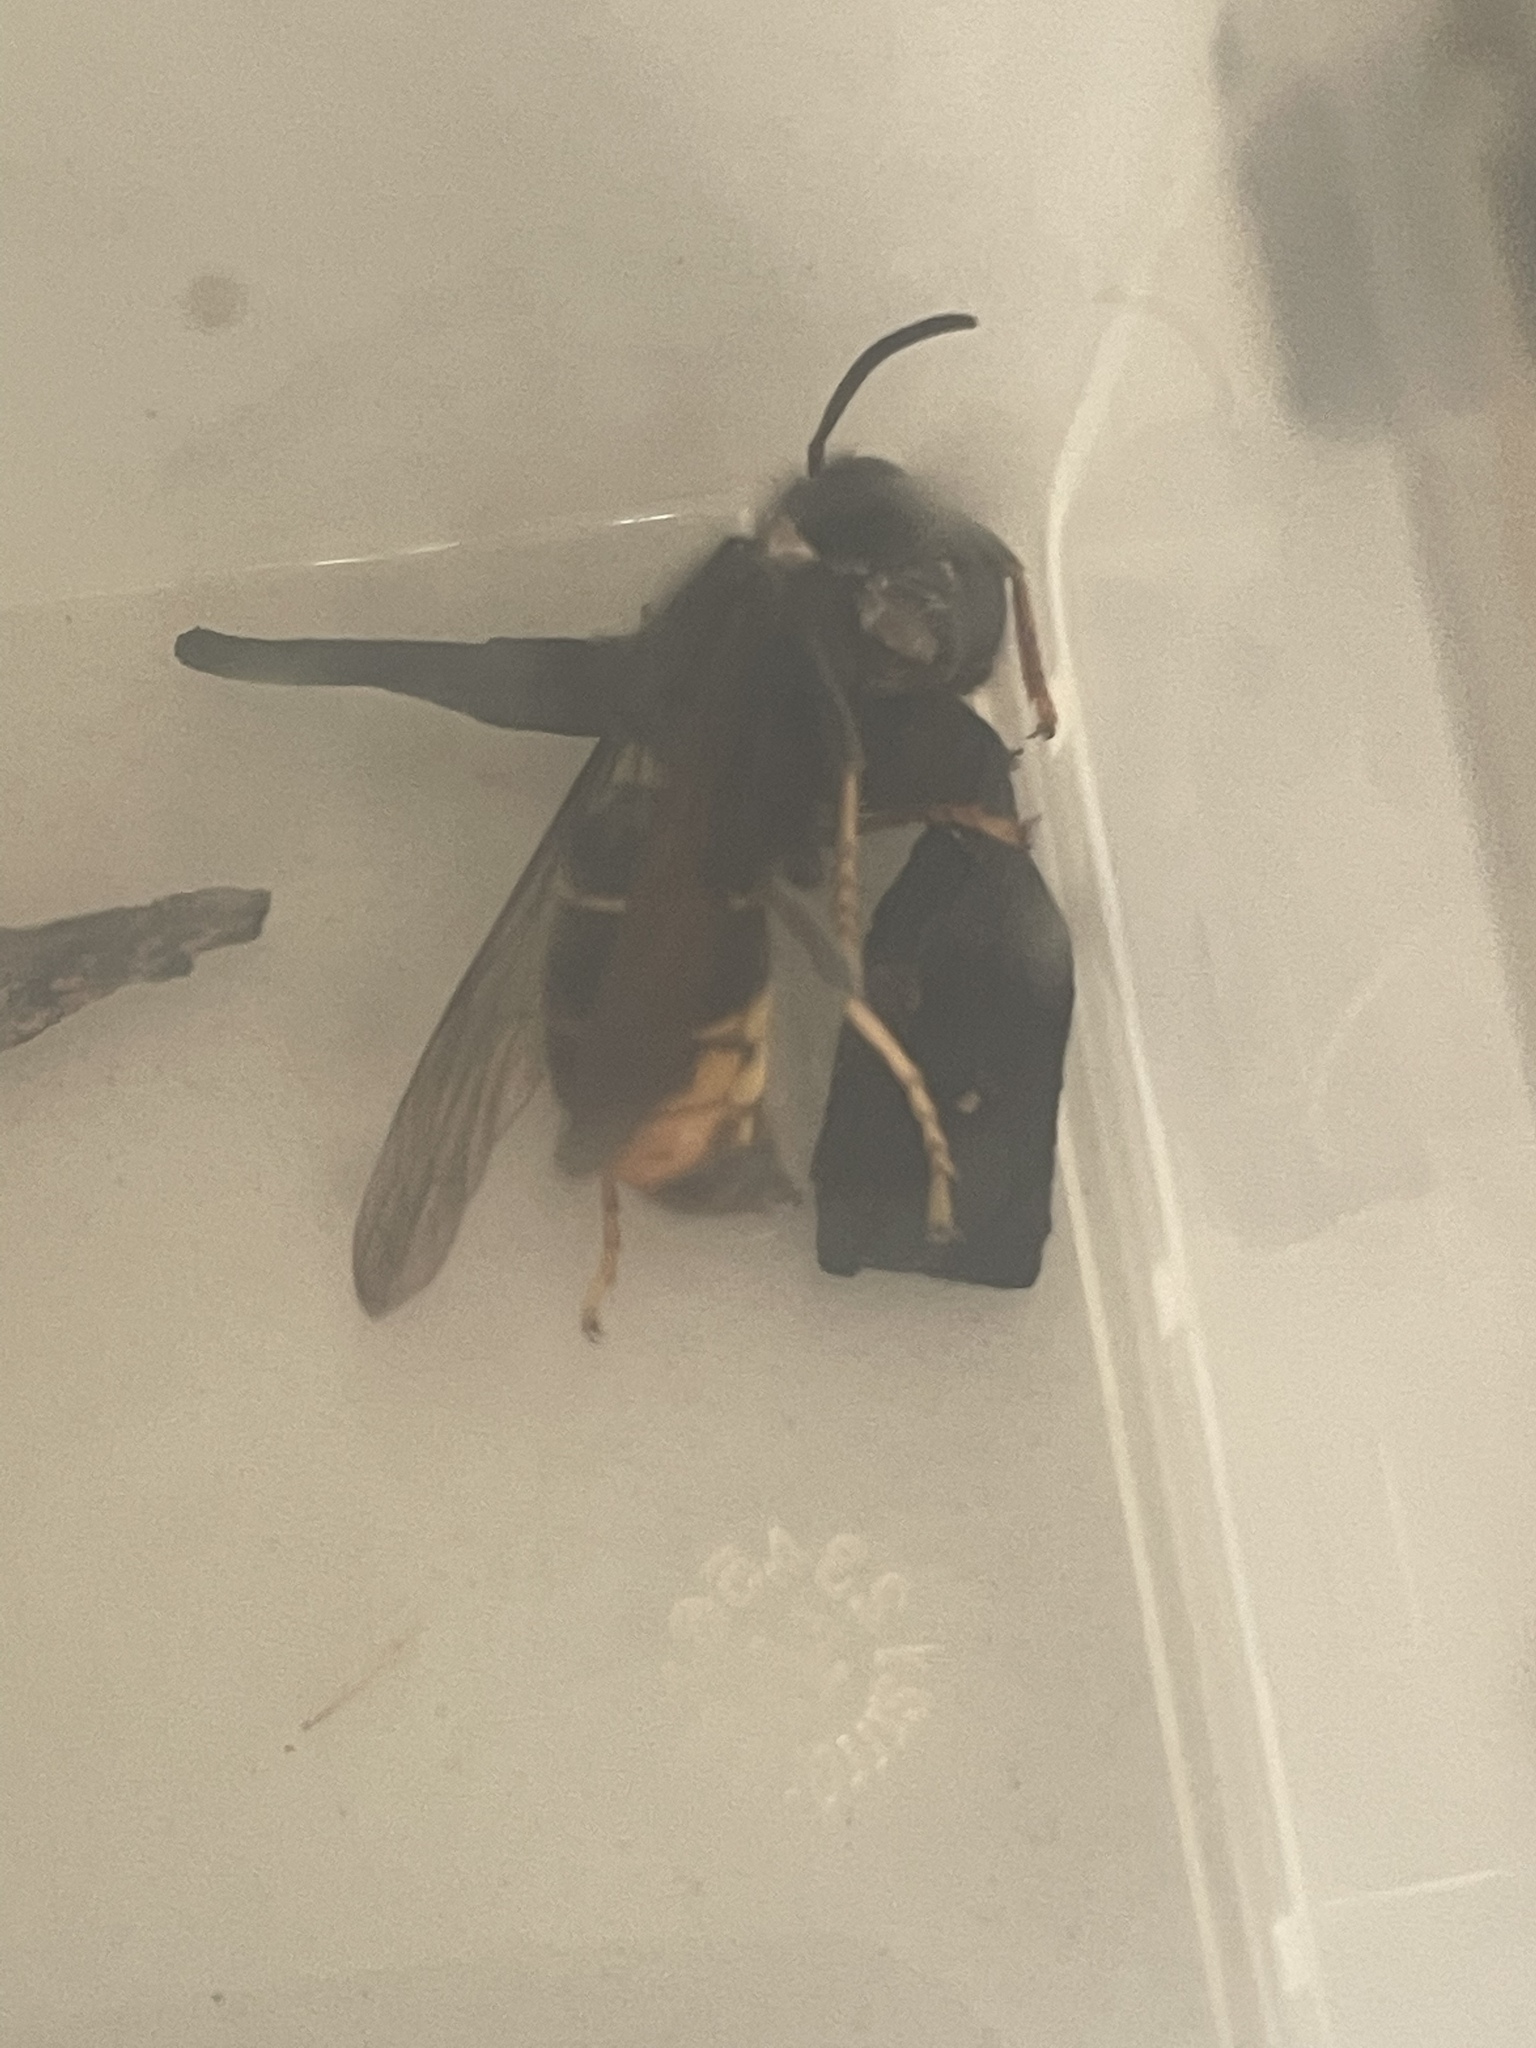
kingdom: Animalia
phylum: Arthropoda
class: Insecta
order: Hymenoptera
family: Vespidae
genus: Vespa
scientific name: Vespa velutina
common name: Asian hornet
